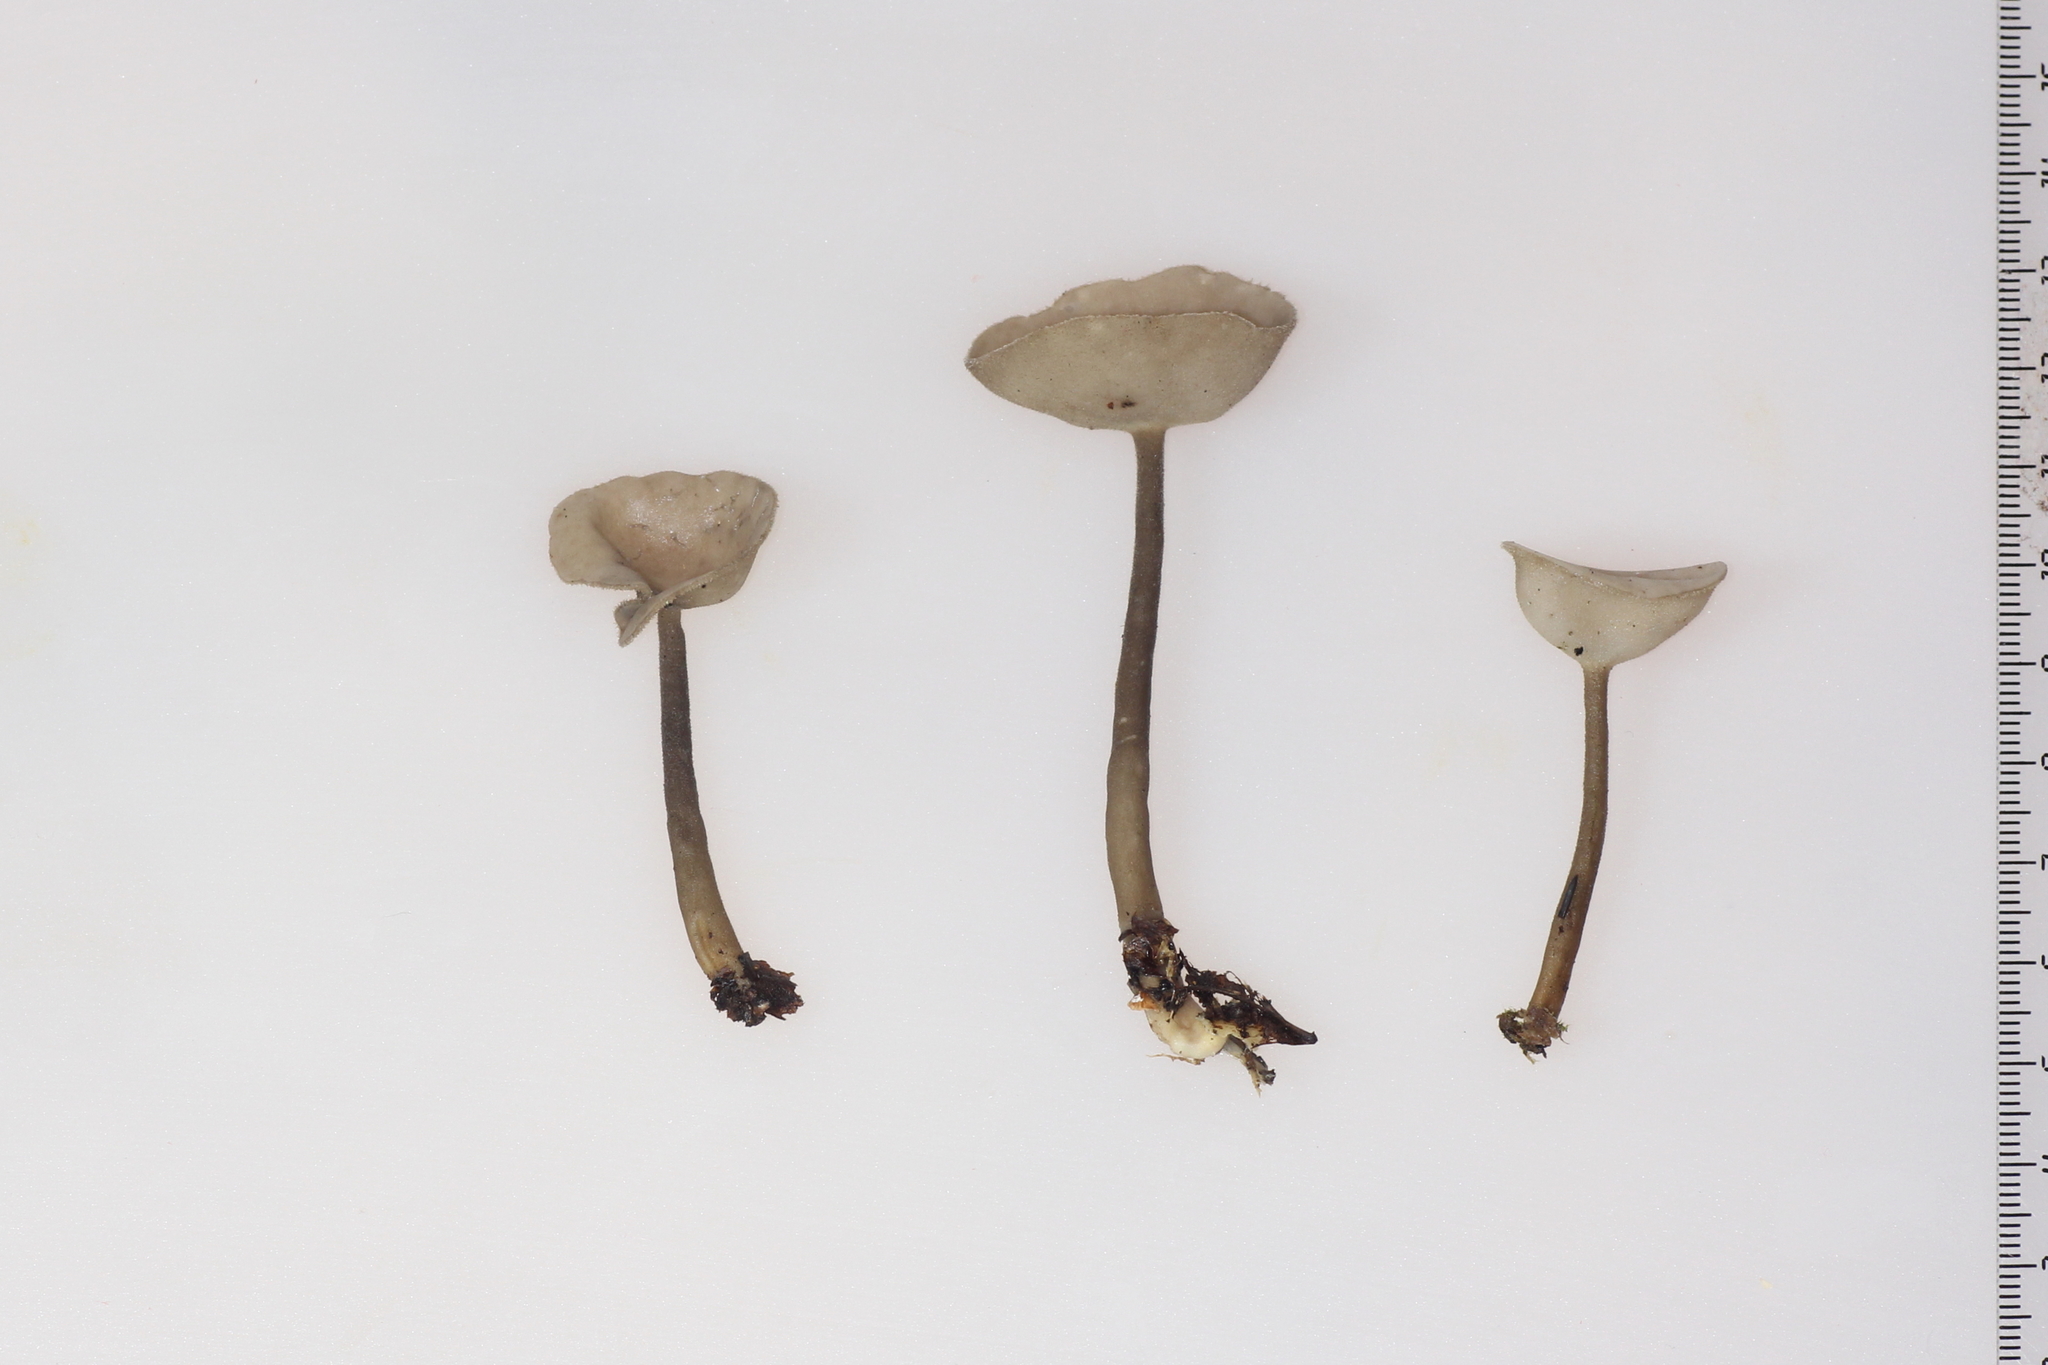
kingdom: Fungi
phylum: Ascomycota
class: Pezizomycetes
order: Pezizales
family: Helvellaceae
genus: Helvella
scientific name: Helvella macropus
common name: Felt saddle
